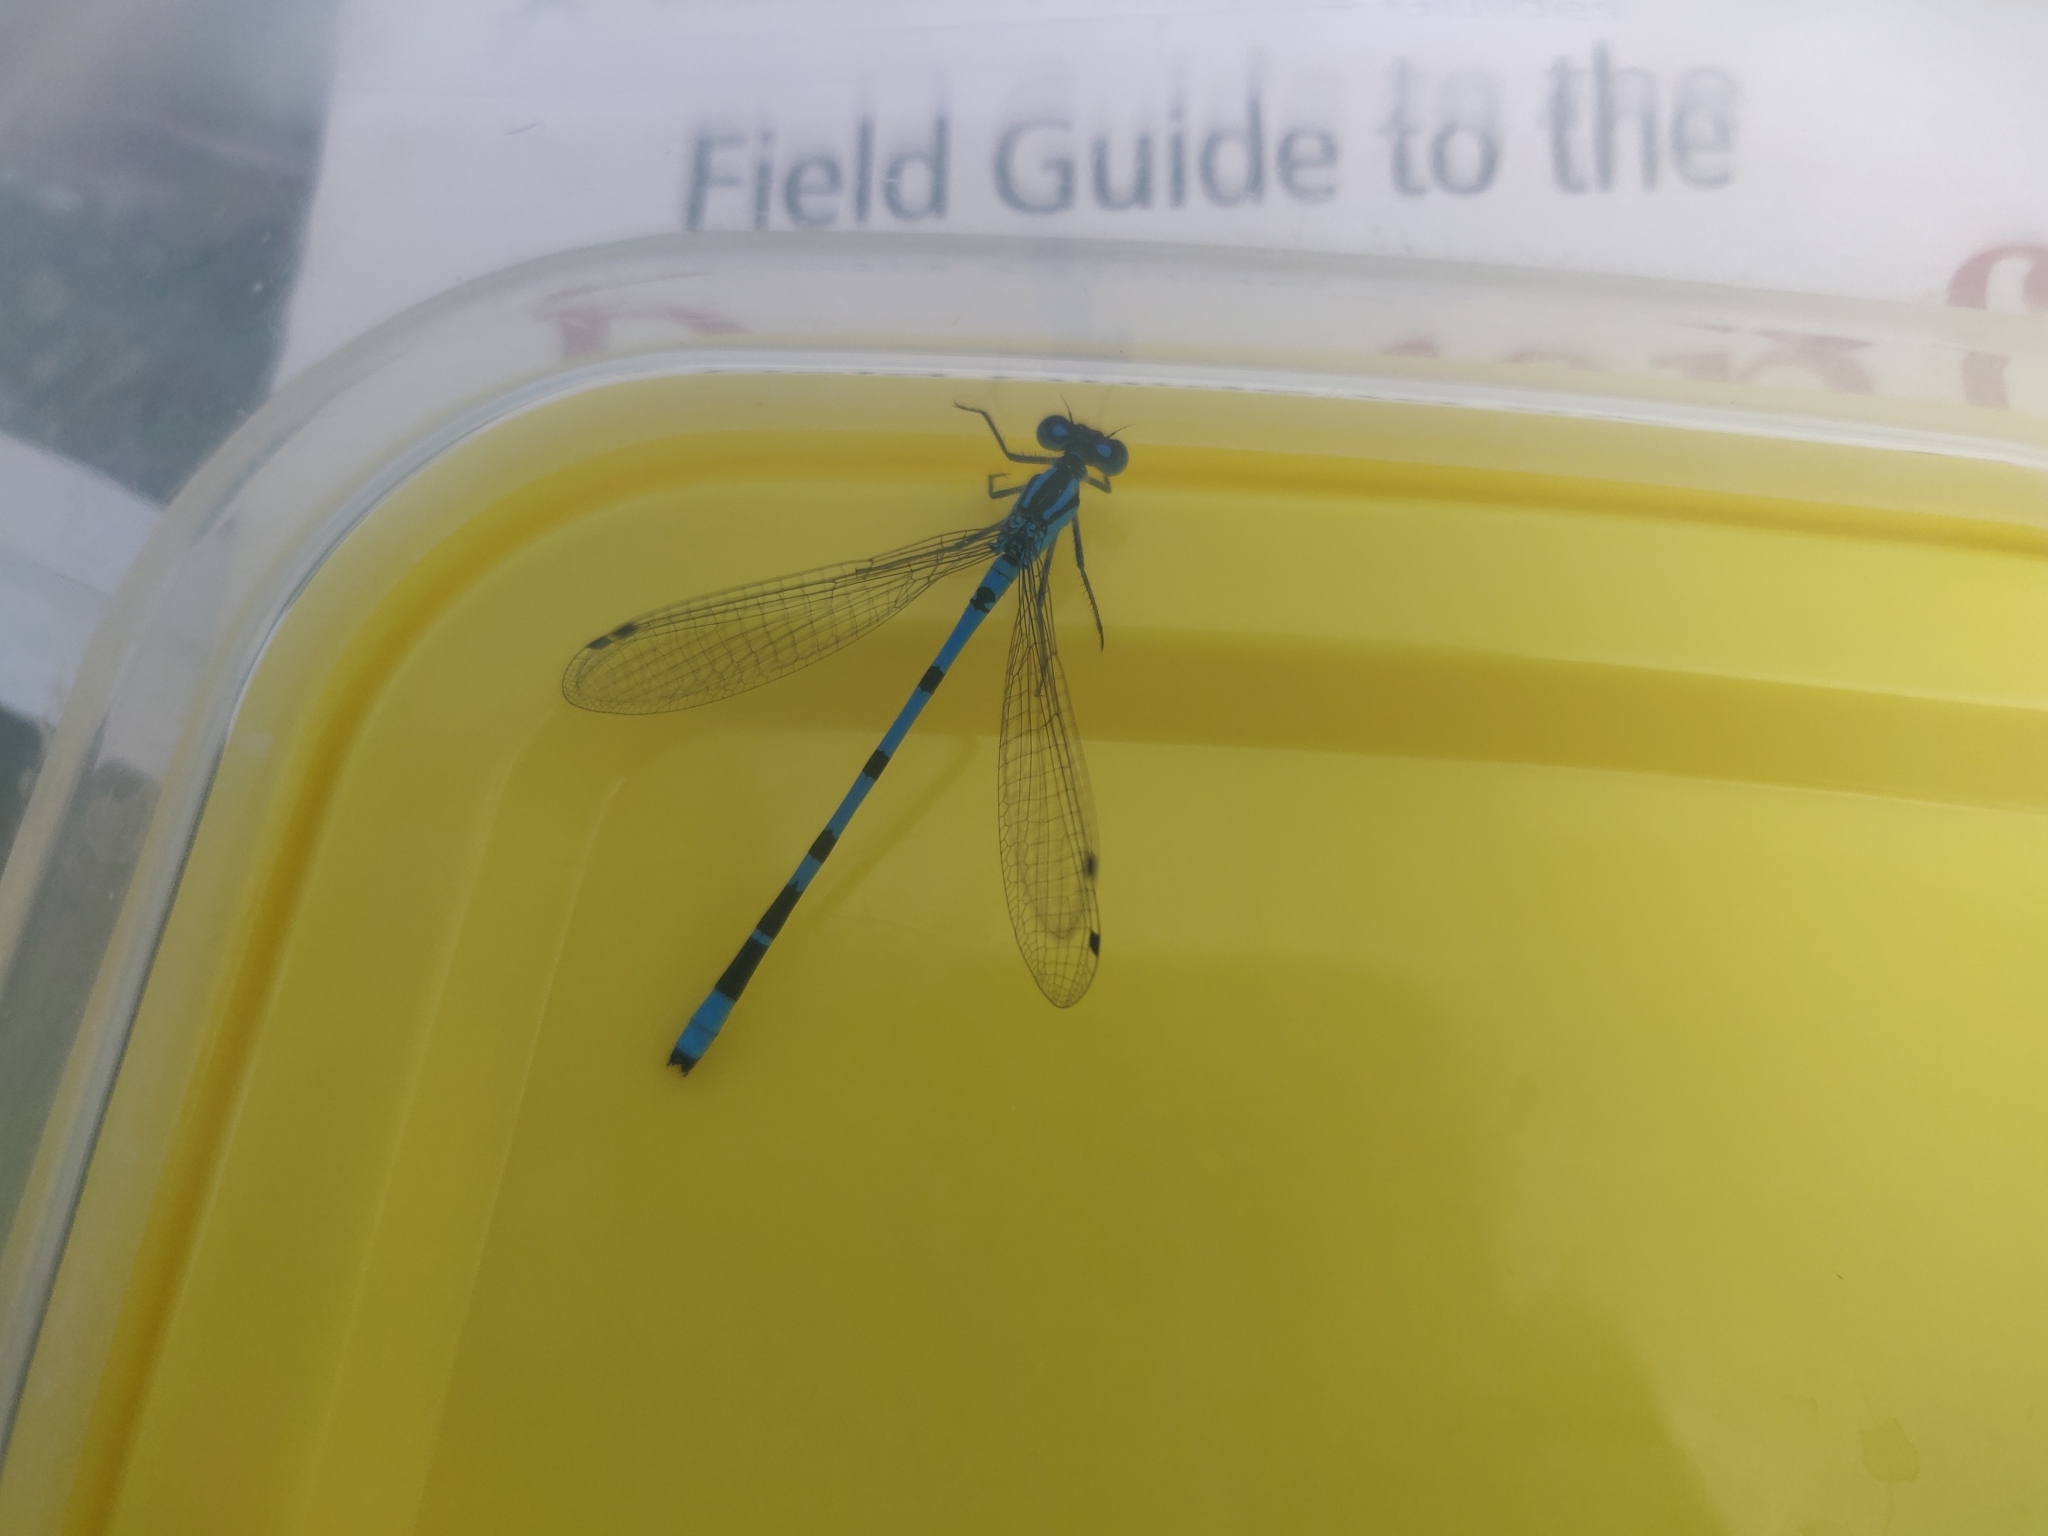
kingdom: Animalia
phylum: Arthropoda
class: Insecta
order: Odonata
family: Coenagrionidae
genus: Enallagma
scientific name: Enallagma cyathigerum
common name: Common blue damselfly
